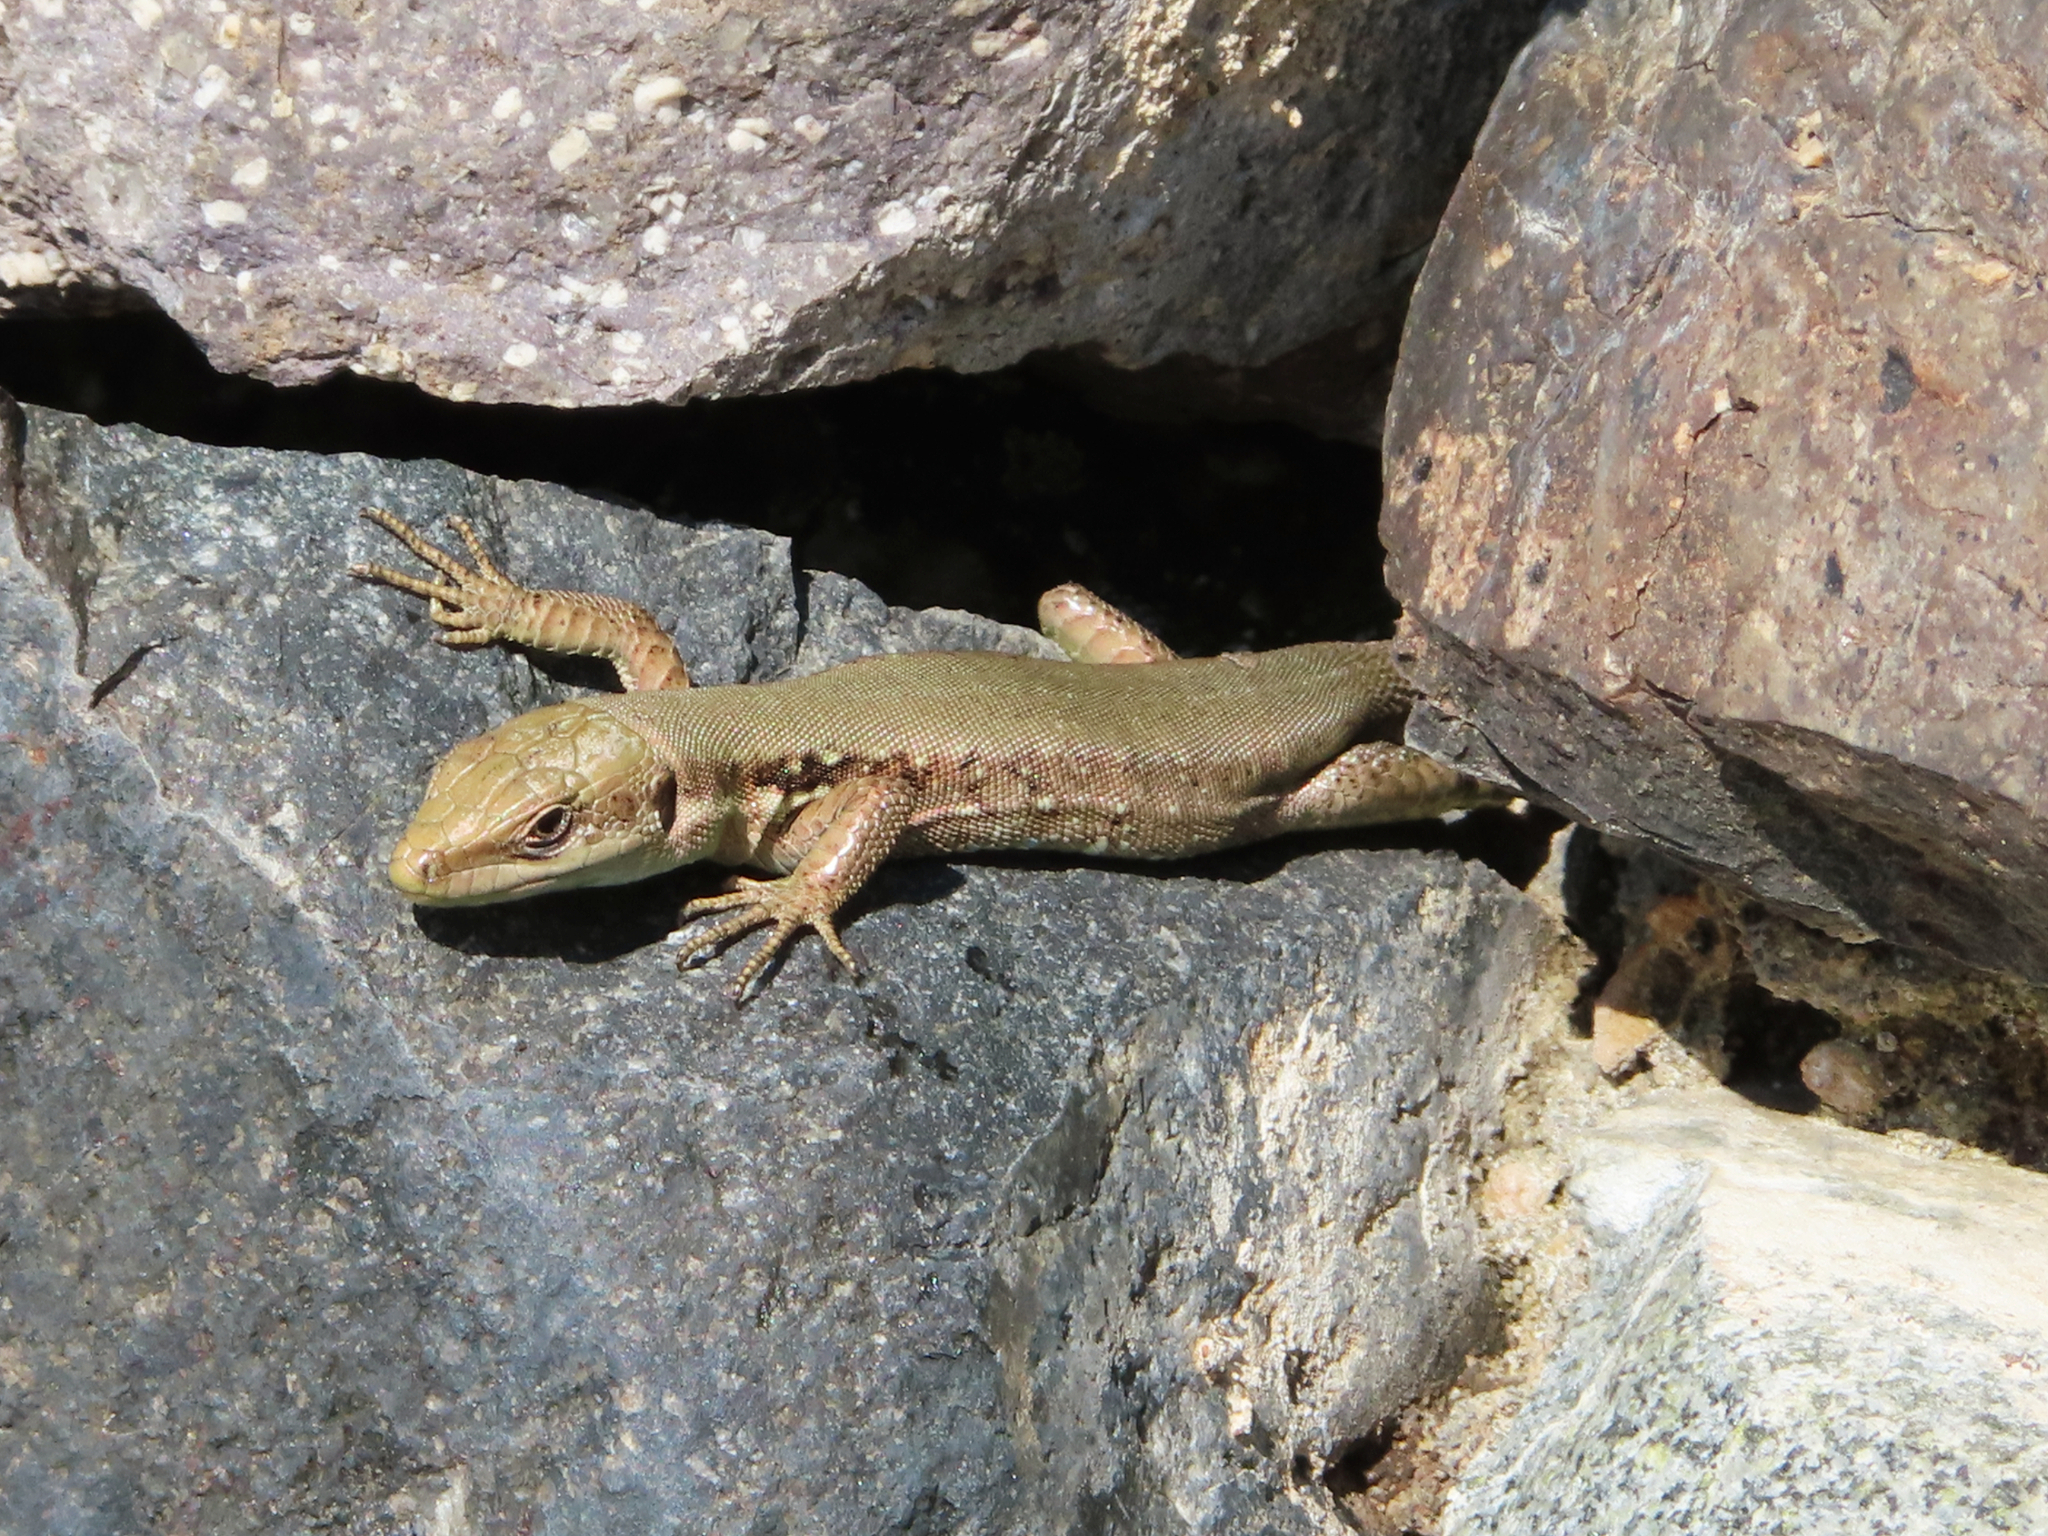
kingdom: Animalia
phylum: Chordata
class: Squamata
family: Lacertidae
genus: Phoenicolacerta
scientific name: Phoenicolacerta laevis
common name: Lebanon lizard
